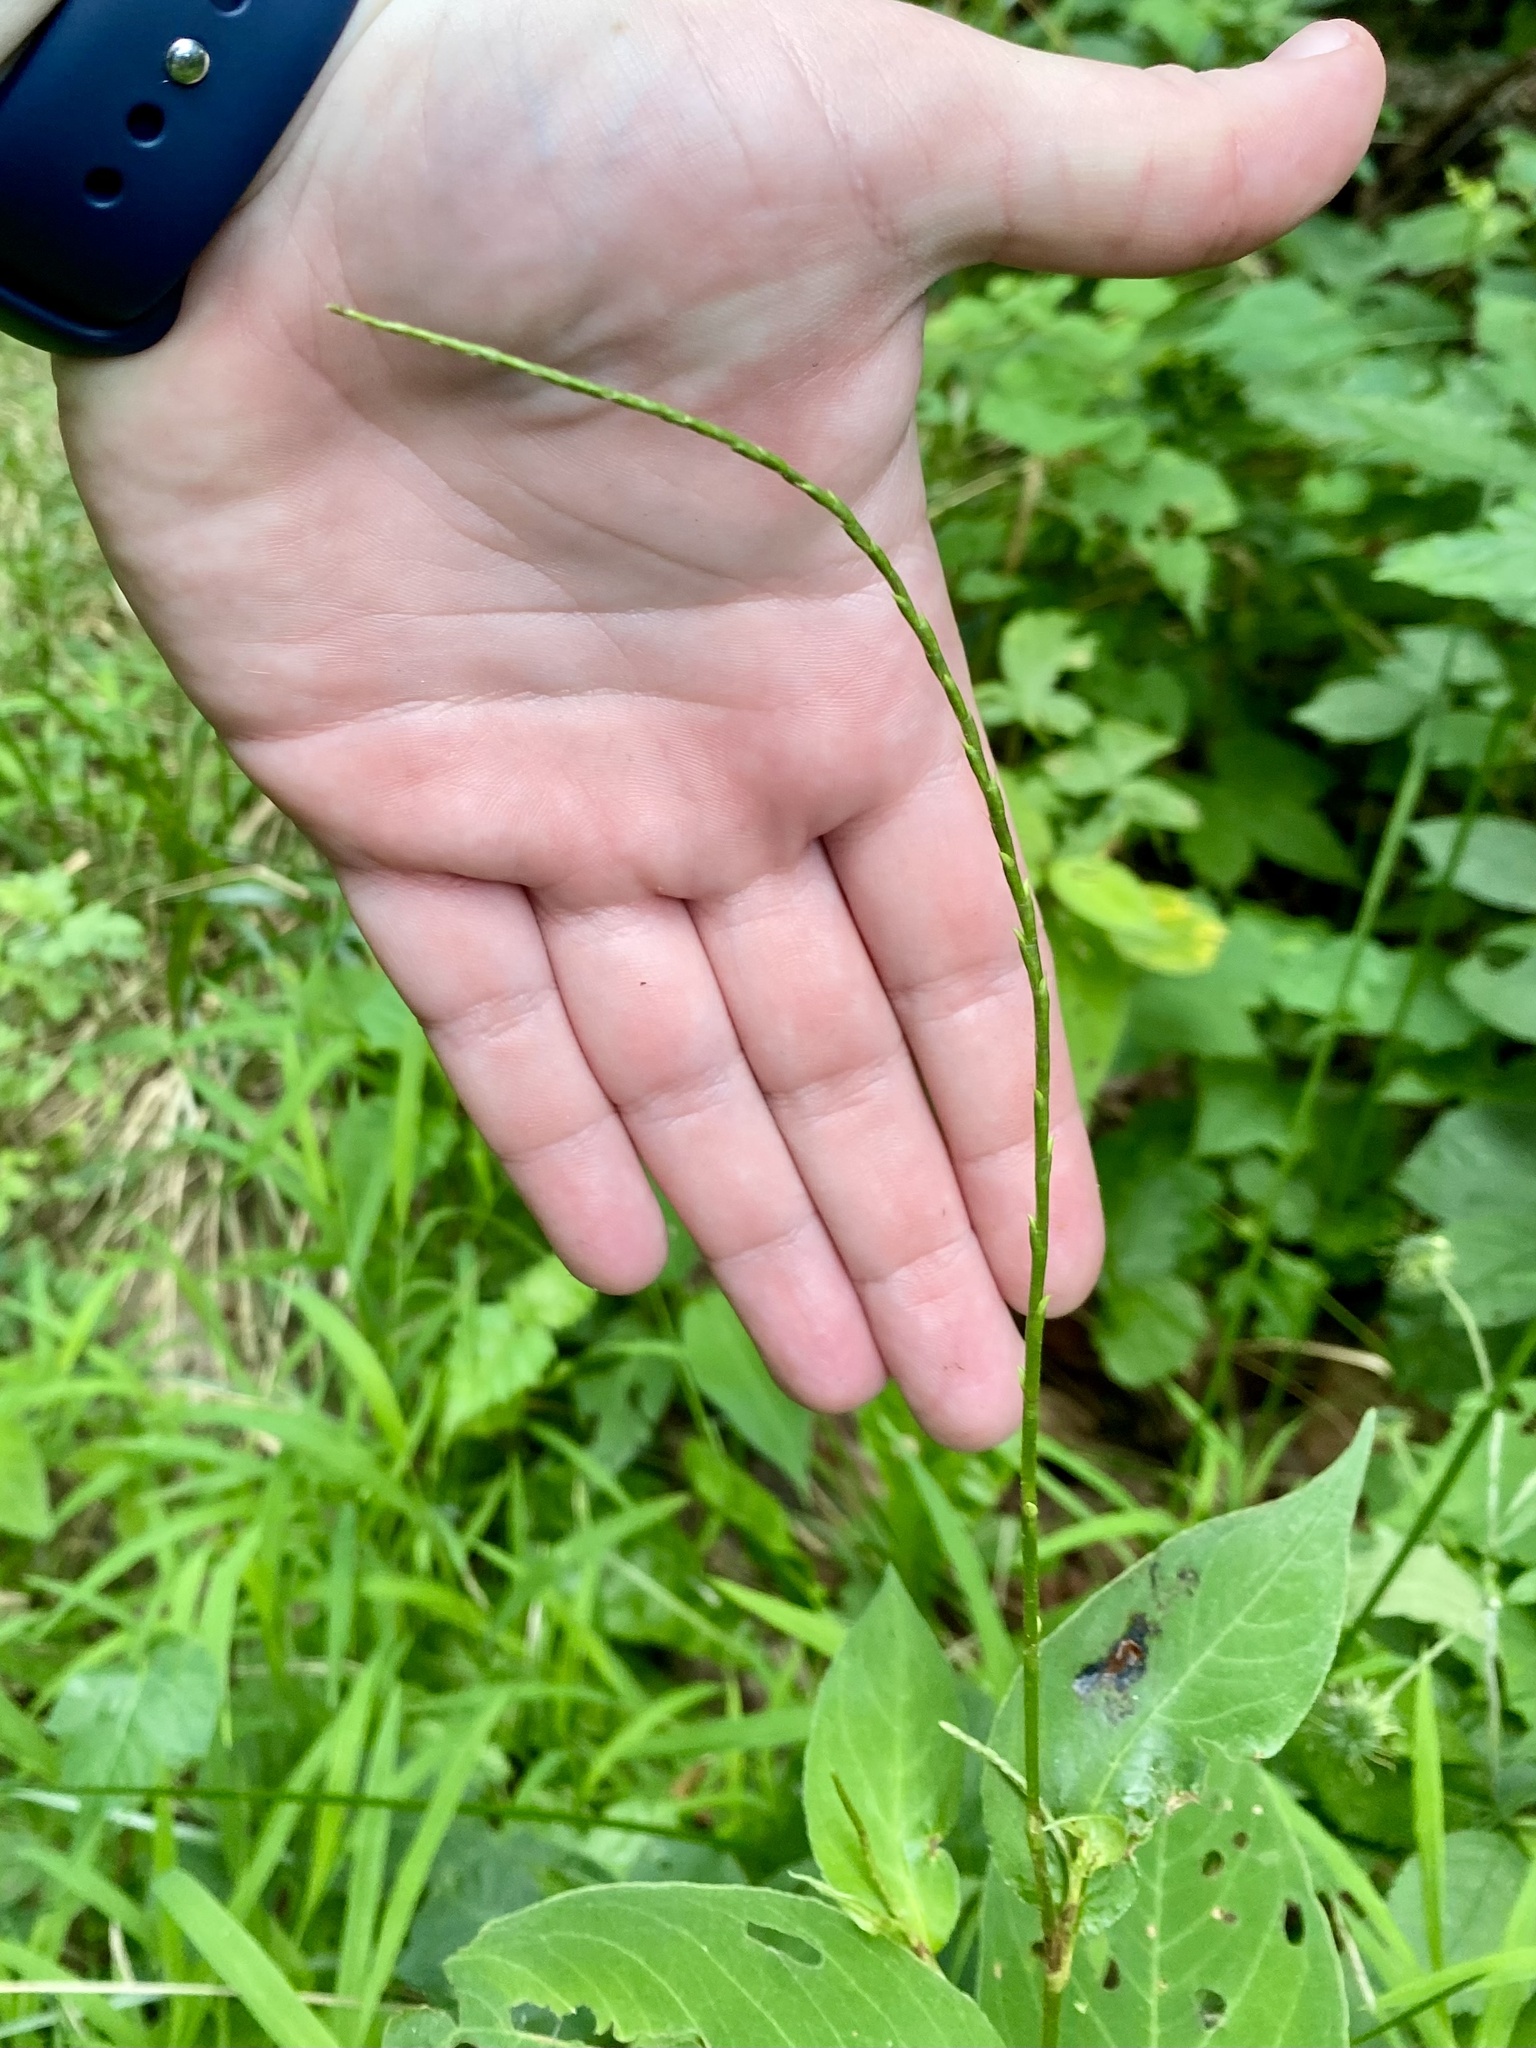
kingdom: Plantae
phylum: Tracheophyta
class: Magnoliopsida
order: Caryophyllales
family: Polygonaceae
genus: Persicaria
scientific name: Persicaria virginiana
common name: Jumpseed
